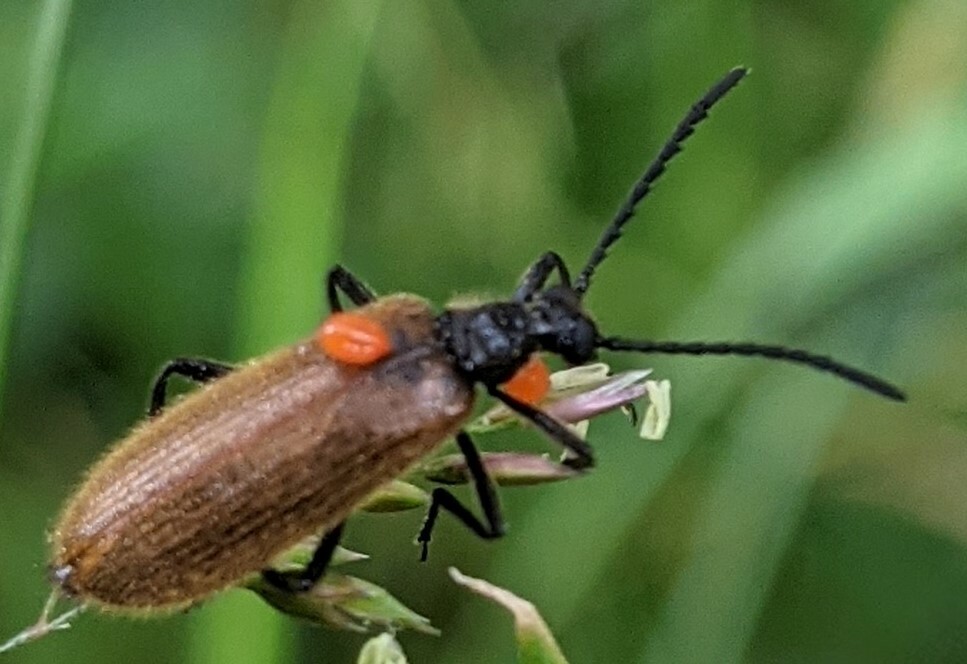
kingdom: Animalia
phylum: Arthropoda
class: Insecta
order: Coleoptera
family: Tenebrionidae
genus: Lagria
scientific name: Lagria hirta
